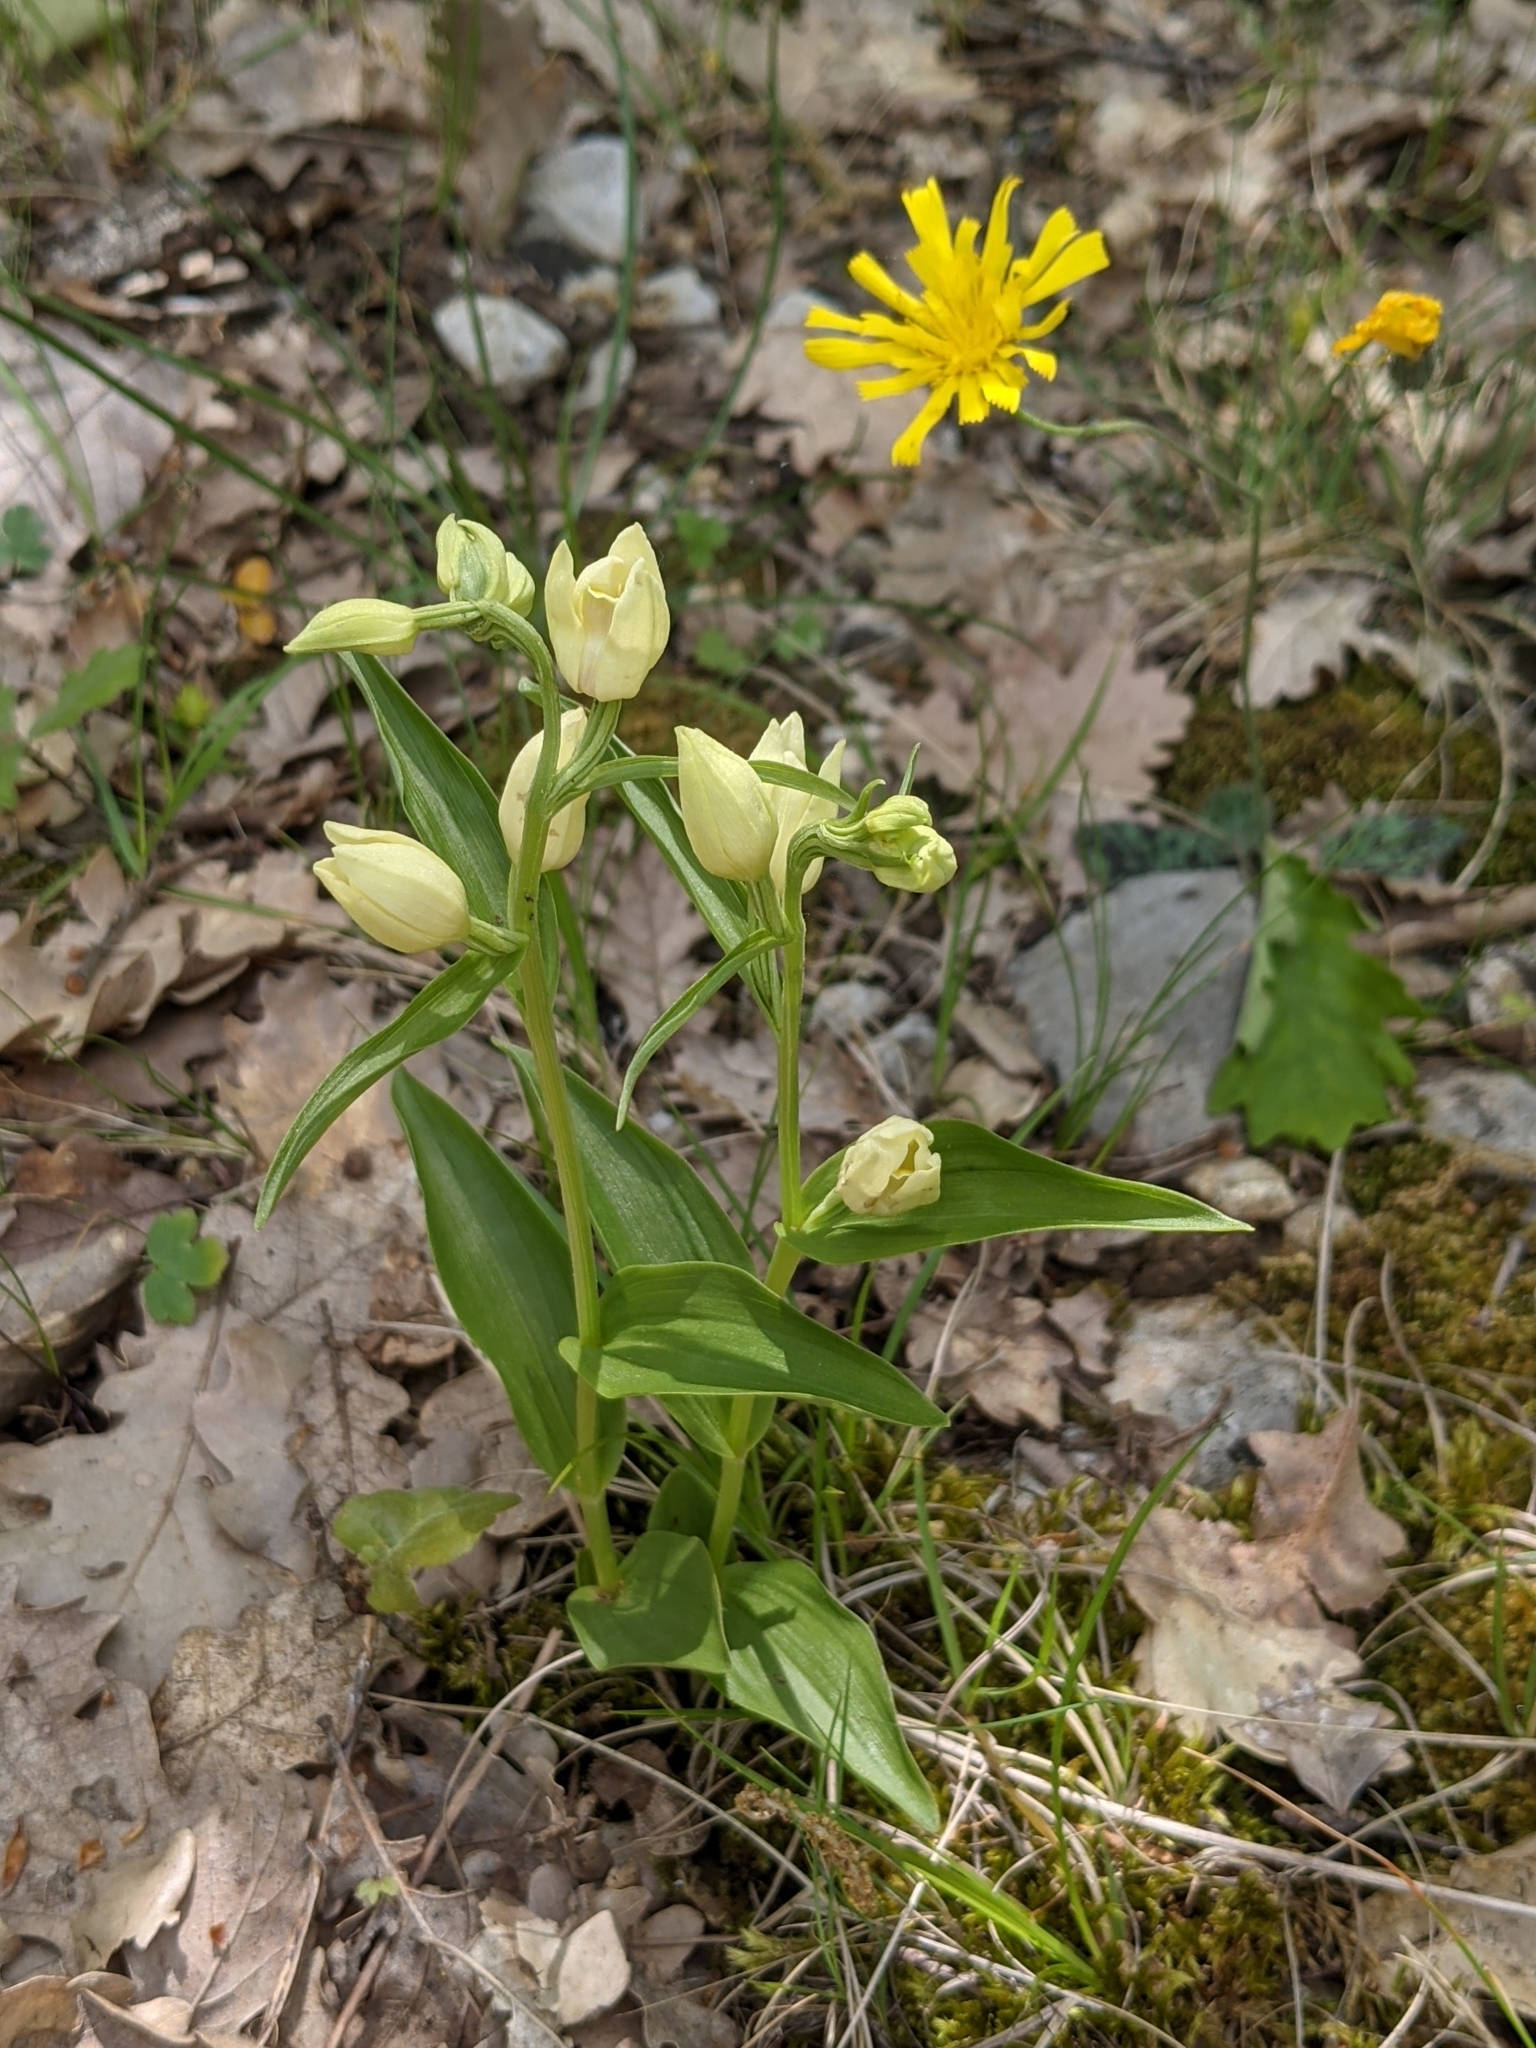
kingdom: Plantae
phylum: Tracheophyta
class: Liliopsida
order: Asparagales
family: Orchidaceae
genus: Cephalanthera
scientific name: Cephalanthera damasonium
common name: White helleborine
